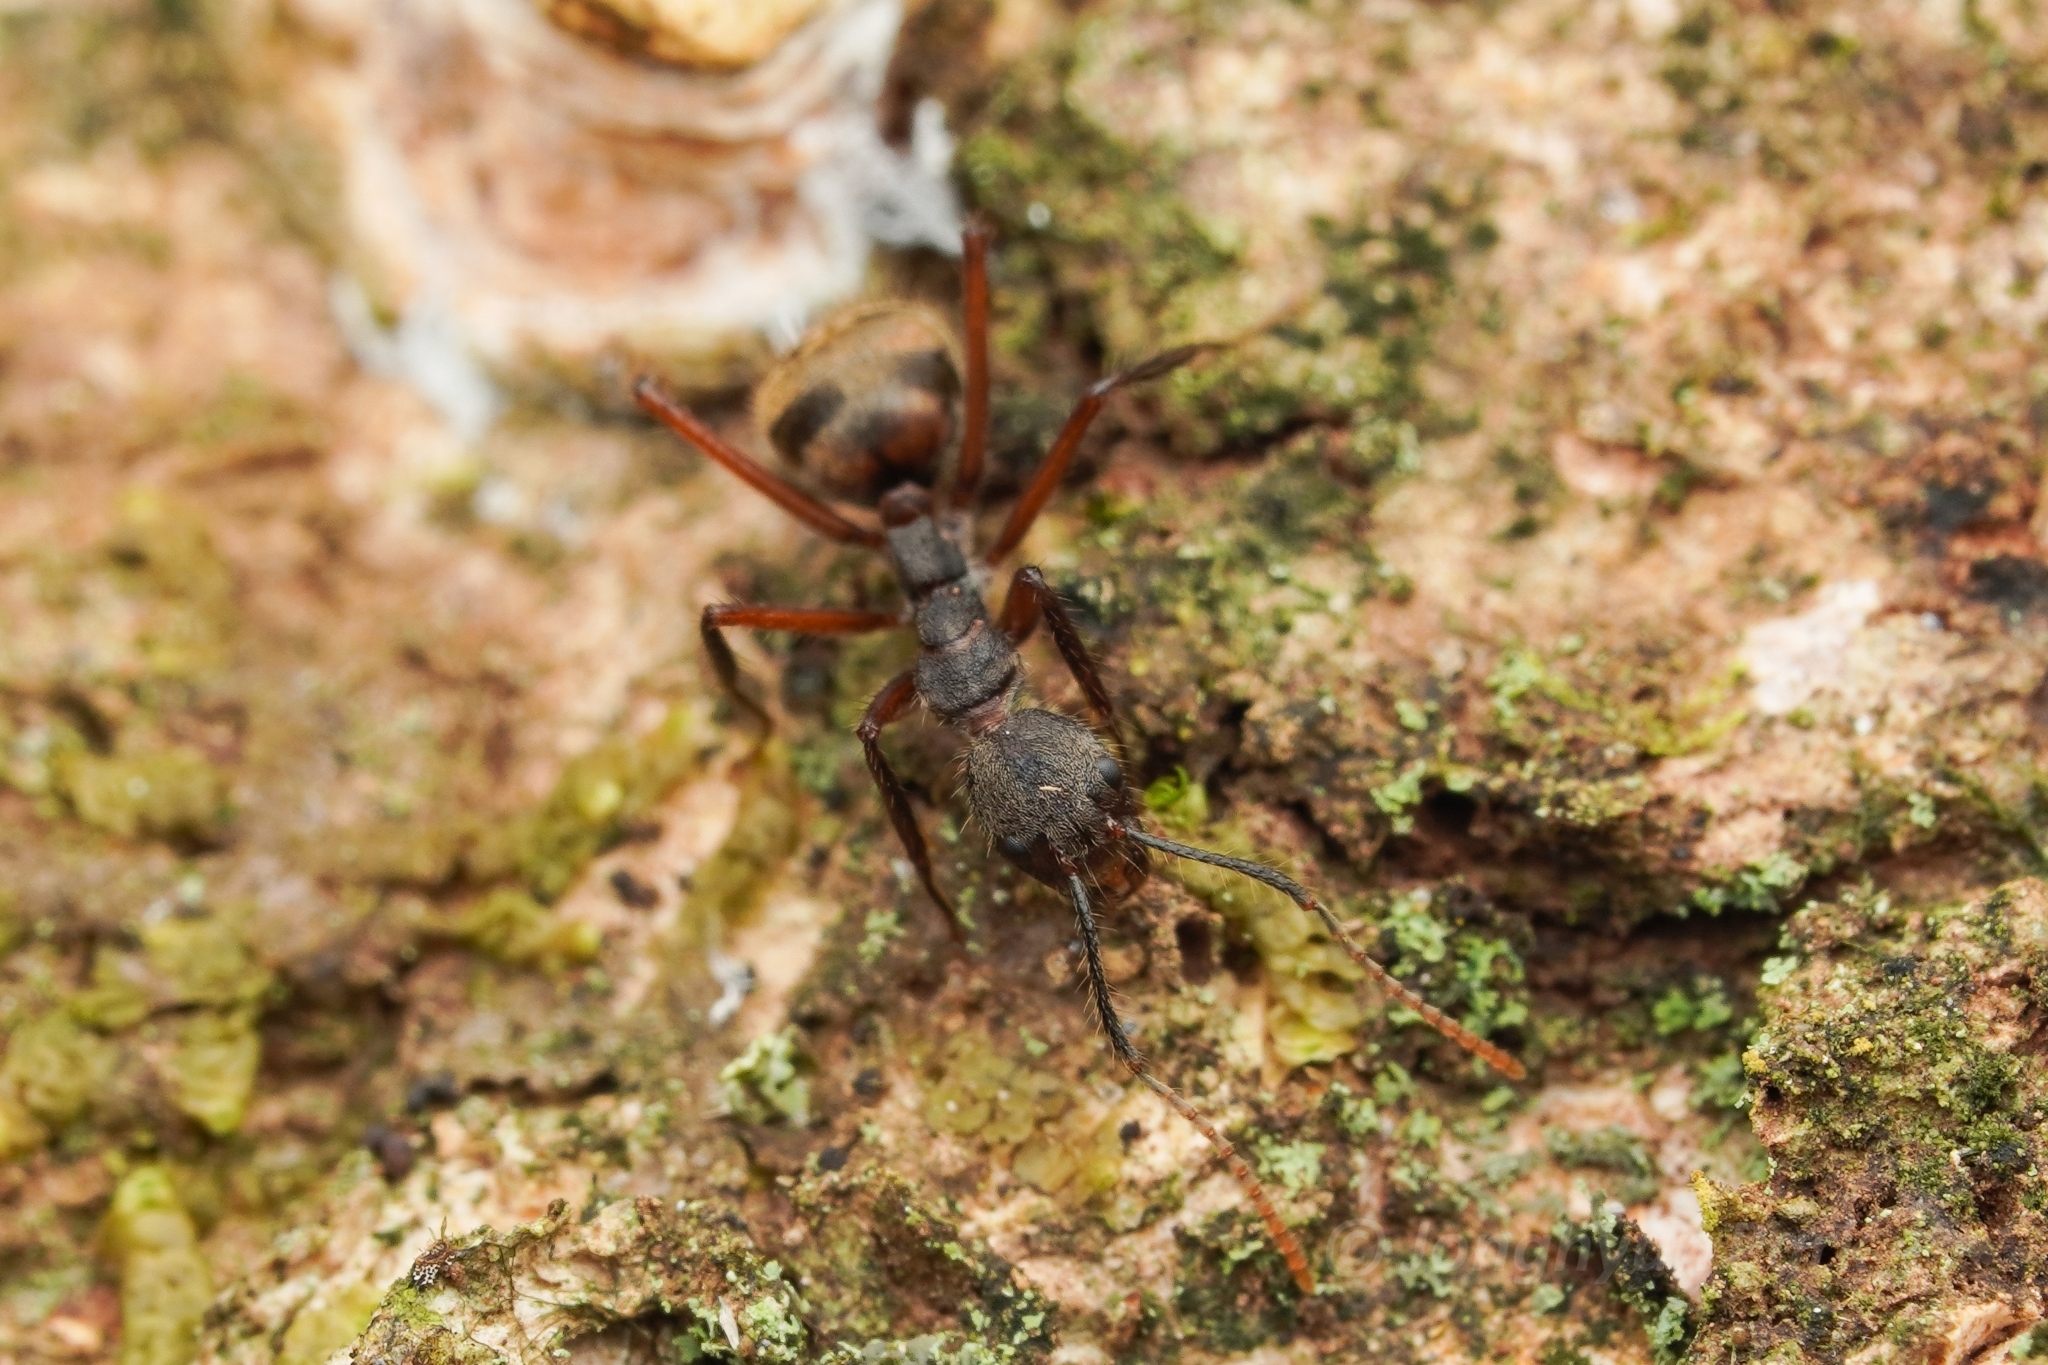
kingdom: Animalia
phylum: Arthropoda
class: Insecta
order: Hymenoptera
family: Formicidae
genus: Dolichoderus
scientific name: Dolichoderus bidens
